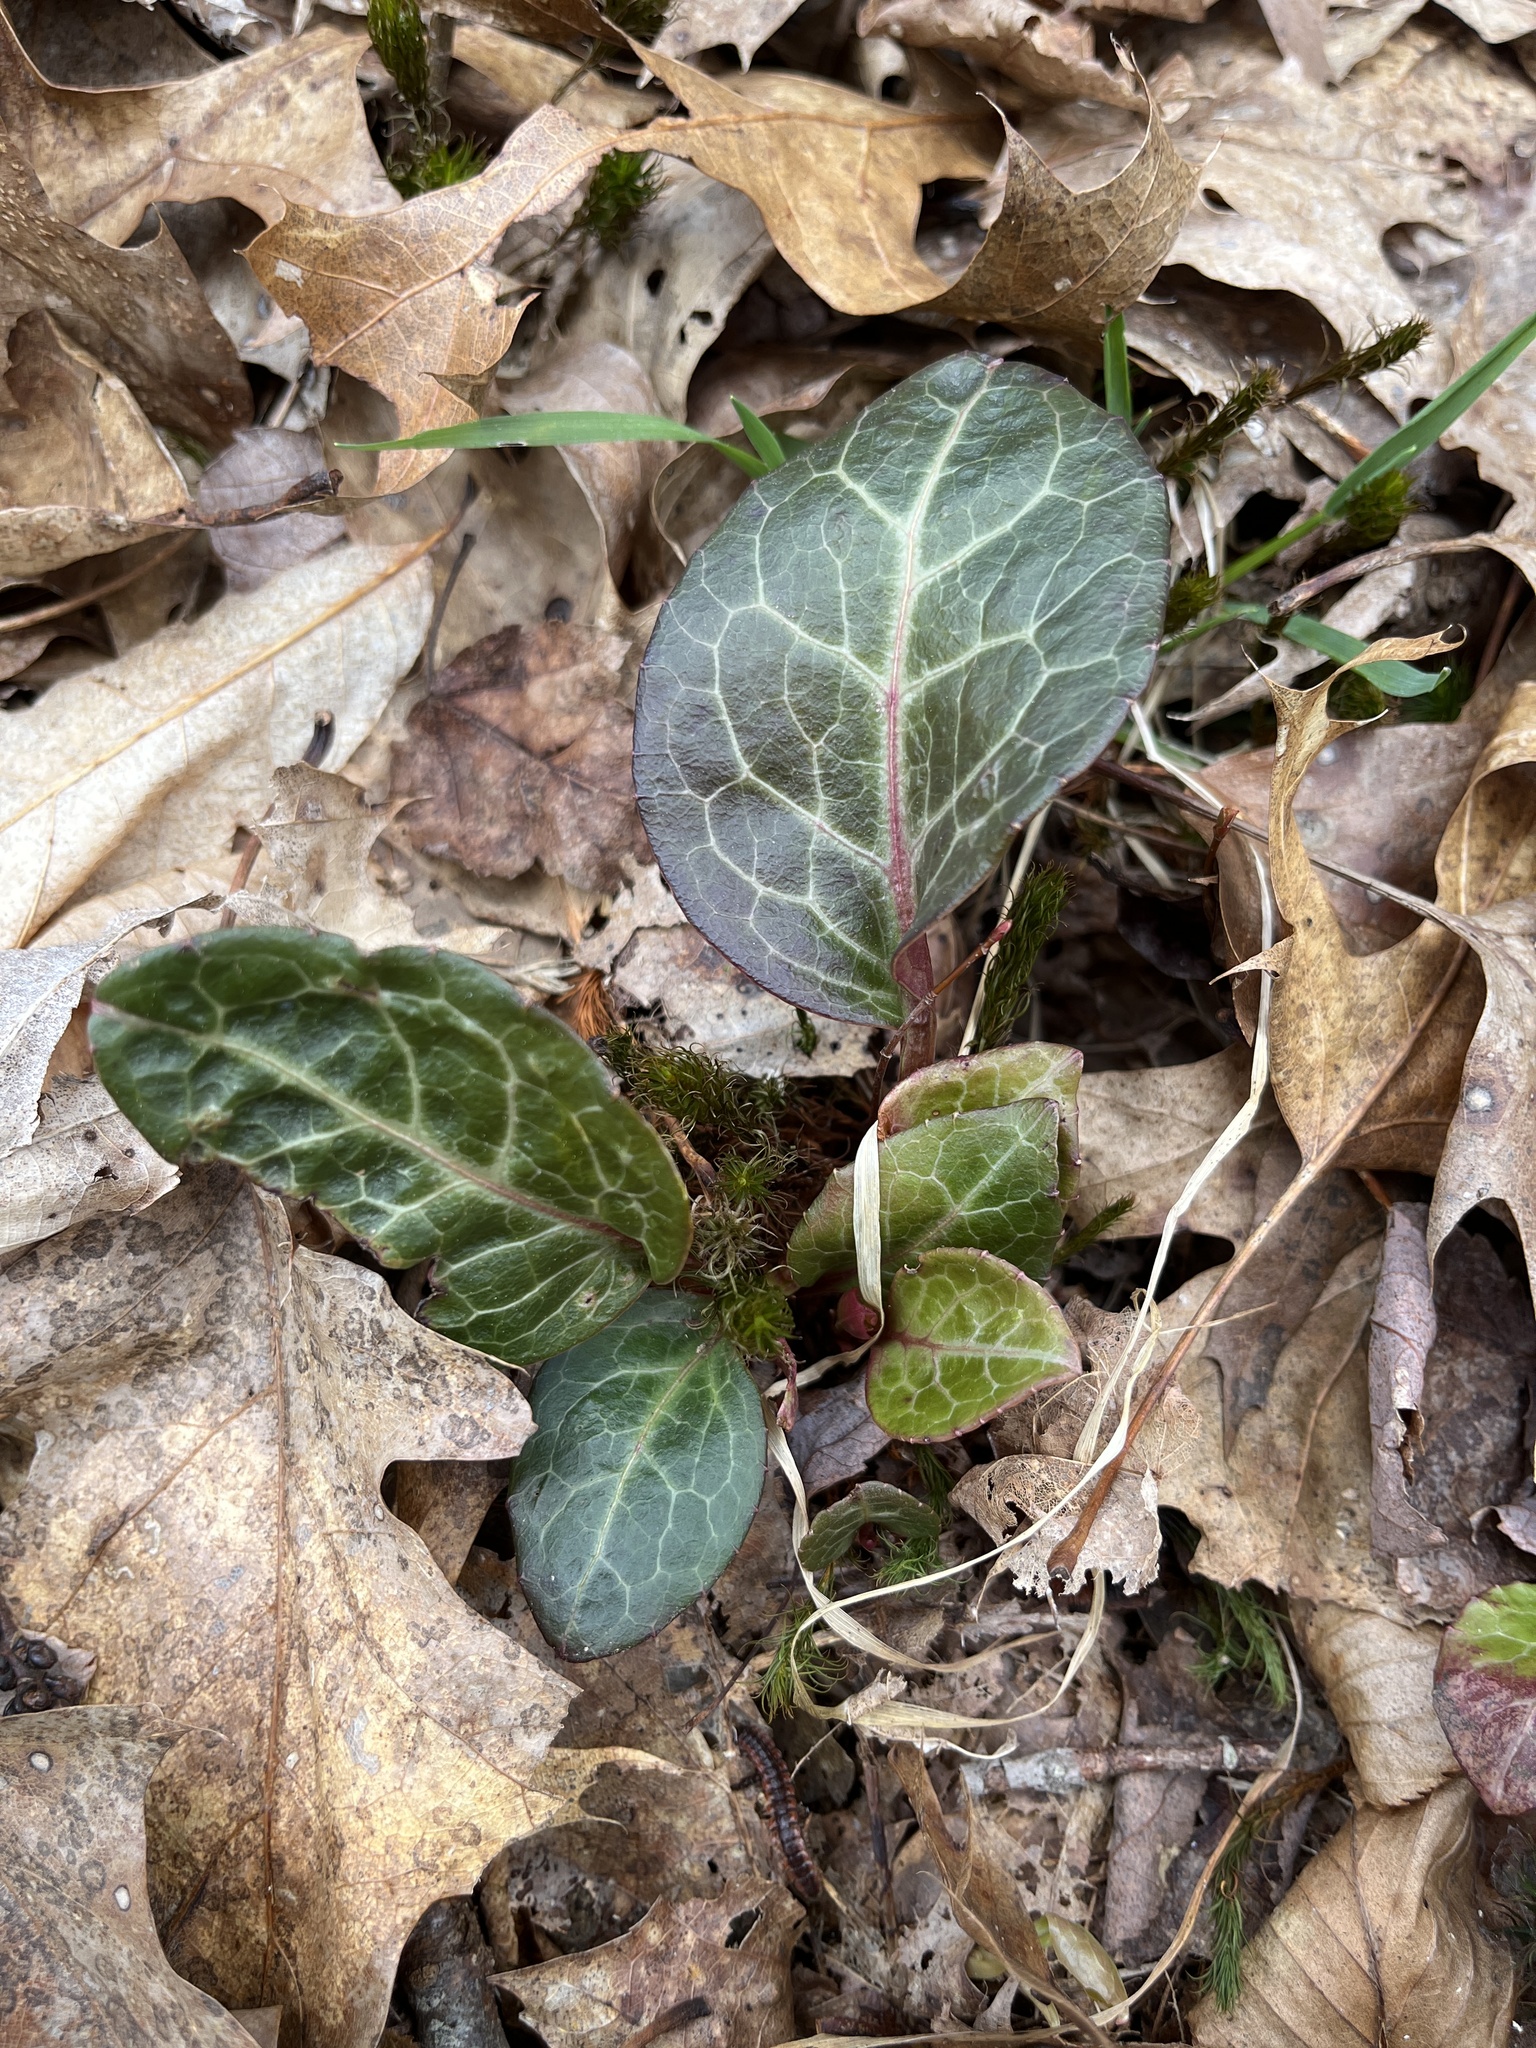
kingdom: Plantae
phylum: Tracheophyta
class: Magnoliopsida
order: Ericales
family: Ericaceae
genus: Pyrola
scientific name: Pyrola americana
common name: American wintergreen
